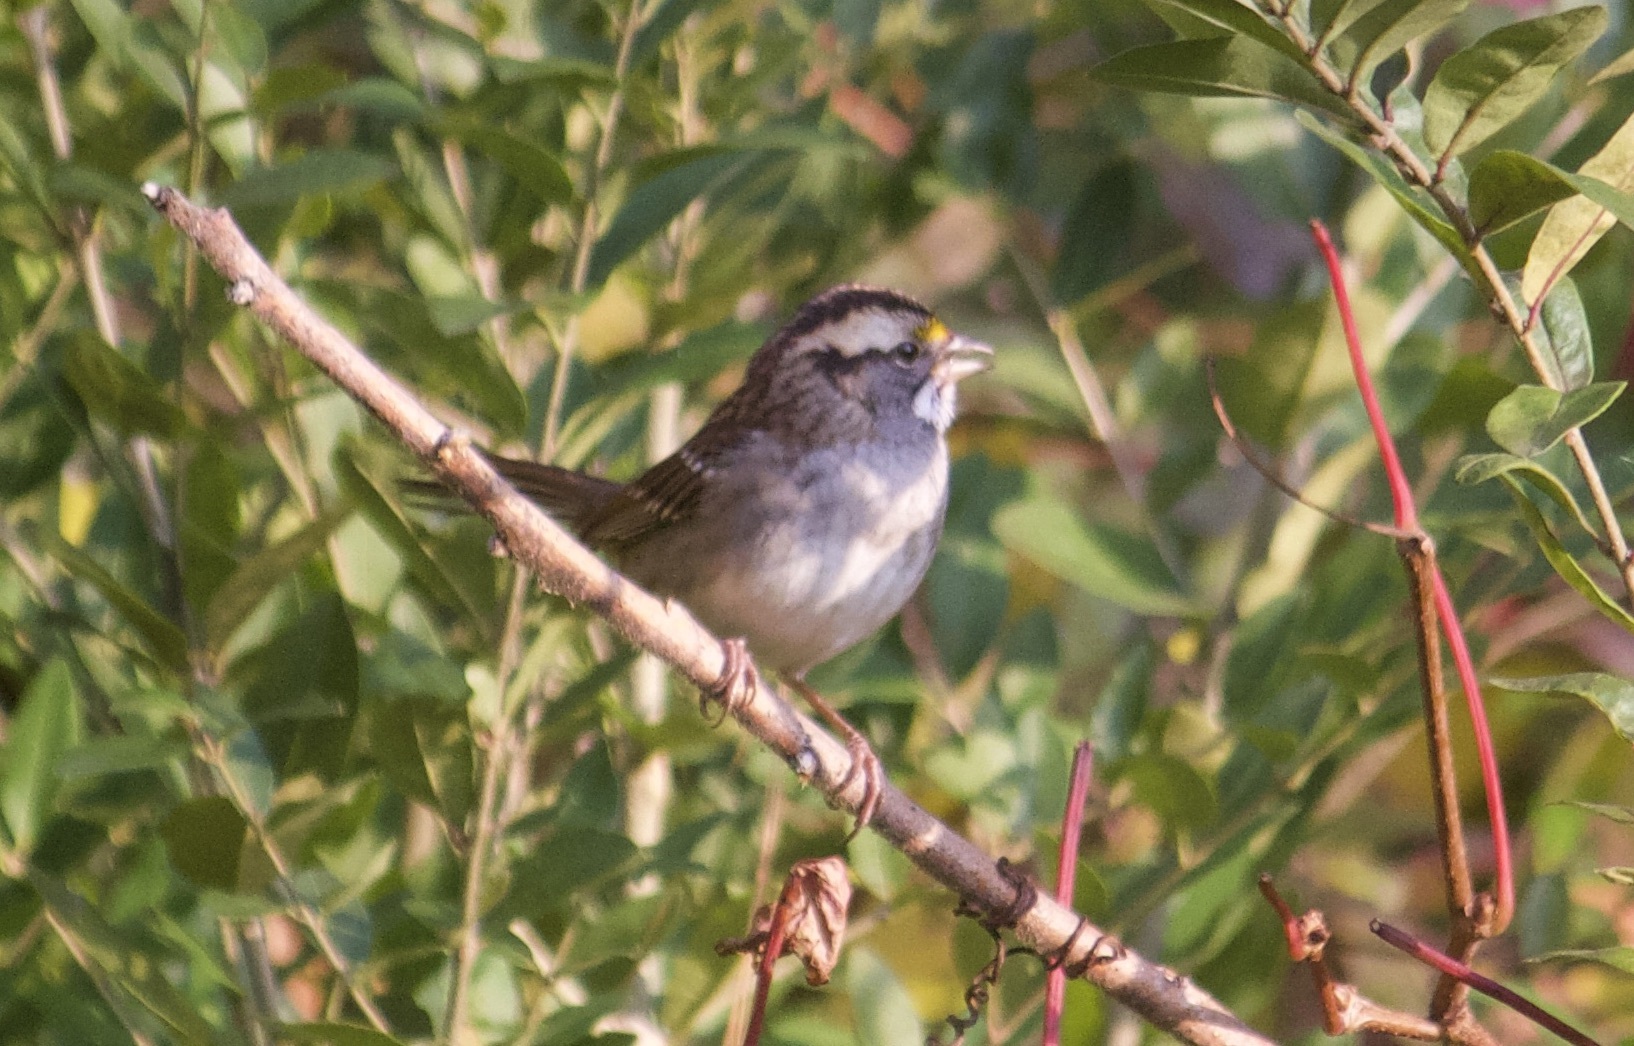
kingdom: Animalia
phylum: Chordata
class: Aves
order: Passeriformes
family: Passerellidae
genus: Zonotrichia
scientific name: Zonotrichia albicollis
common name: White-throated sparrow
